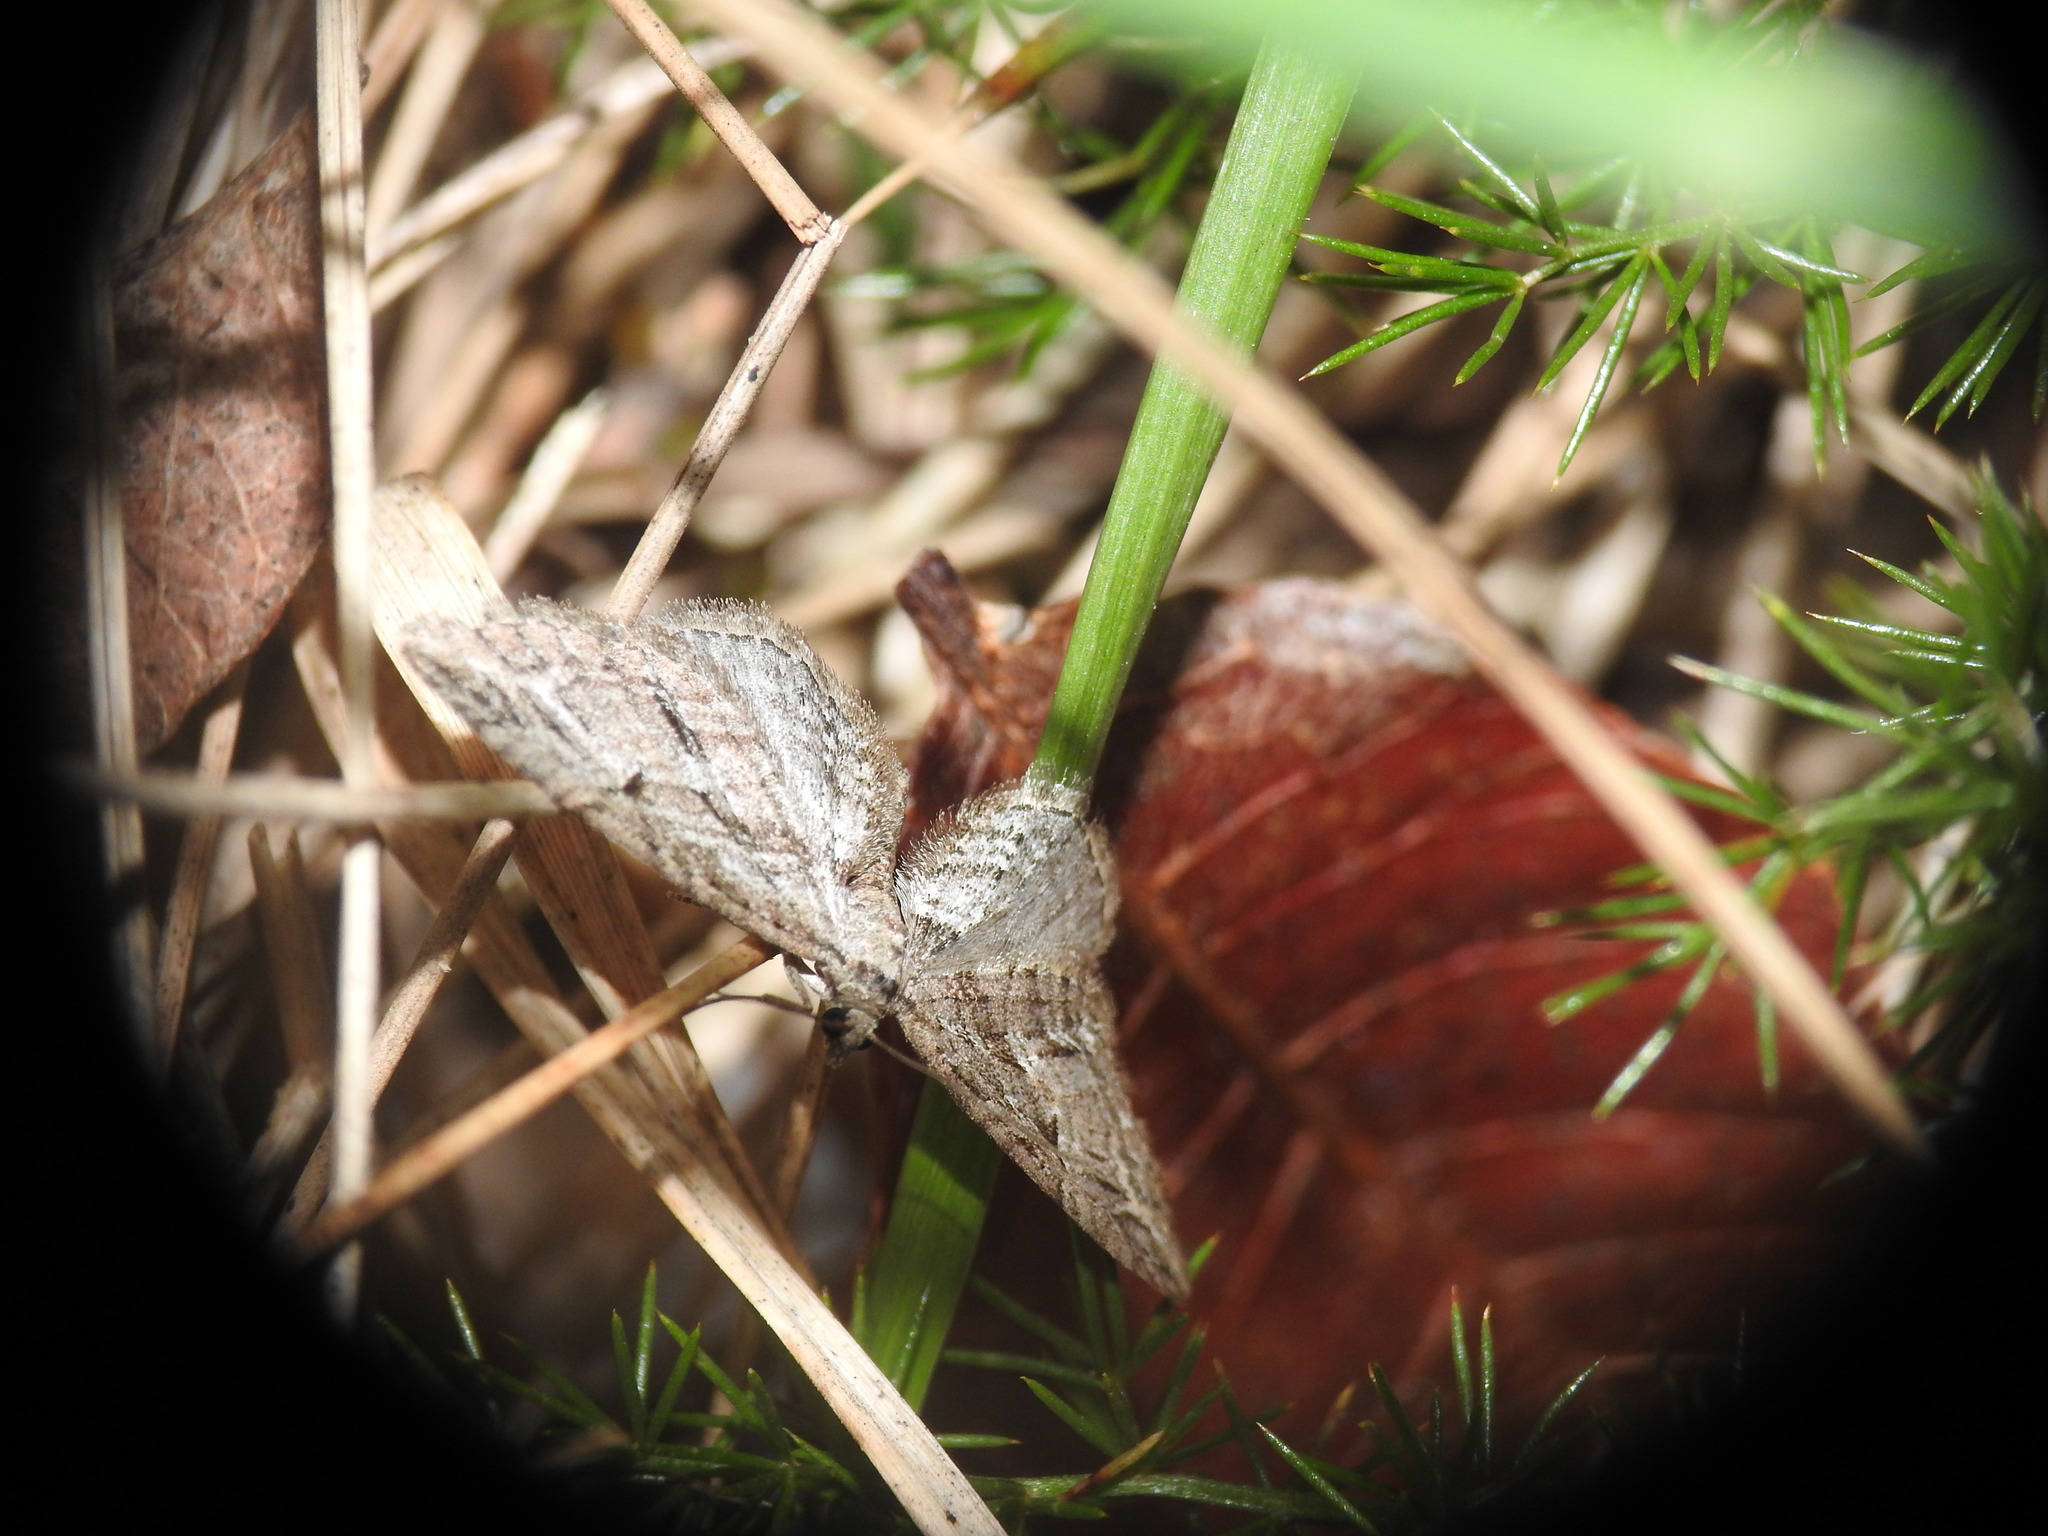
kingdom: Animalia
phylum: Arthropoda
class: Insecta
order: Lepidoptera
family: Geometridae
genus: Eupithecia
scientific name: Eupithecia oxycedrata
